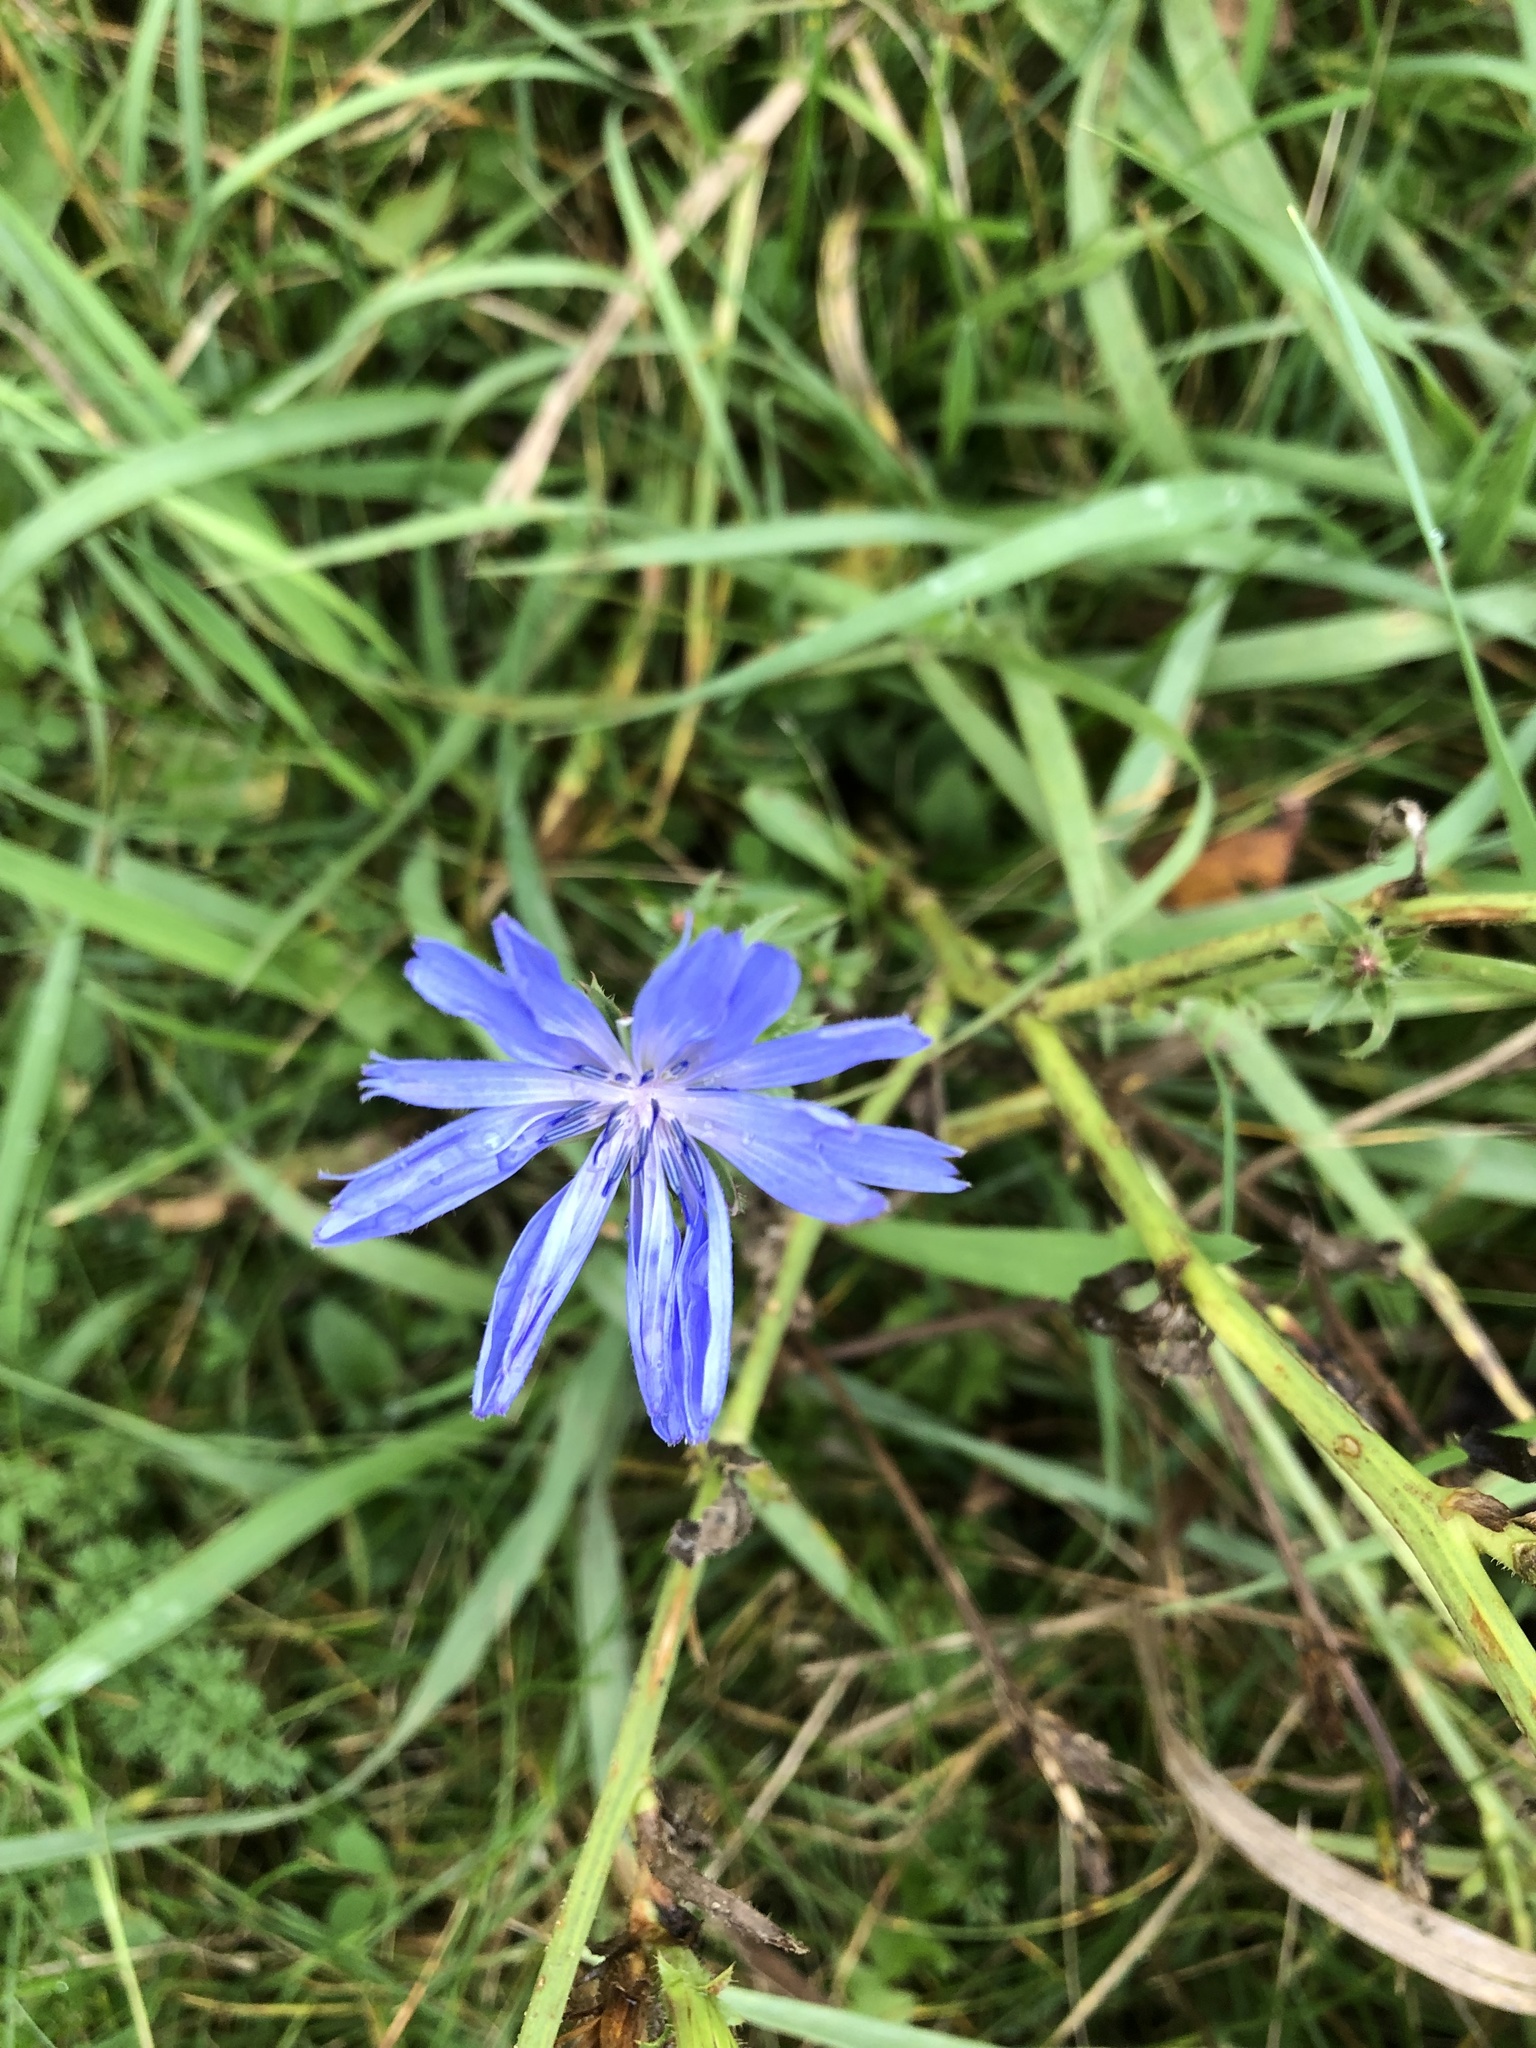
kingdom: Plantae
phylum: Tracheophyta
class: Magnoliopsida
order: Asterales
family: Asteraceae
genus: Cichorium
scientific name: Cichorium intybus
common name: Chicory
